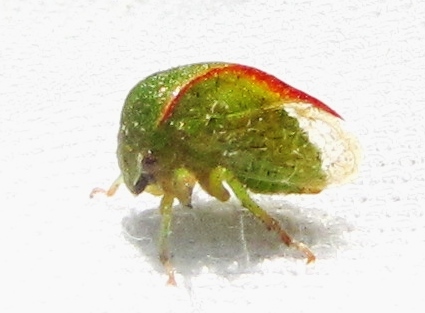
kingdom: Animalia
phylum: Arthropoda
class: Insecta
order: Hemiptera
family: Membracidae
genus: Spissistilus
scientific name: Spissistilus festina
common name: Membracid bug
